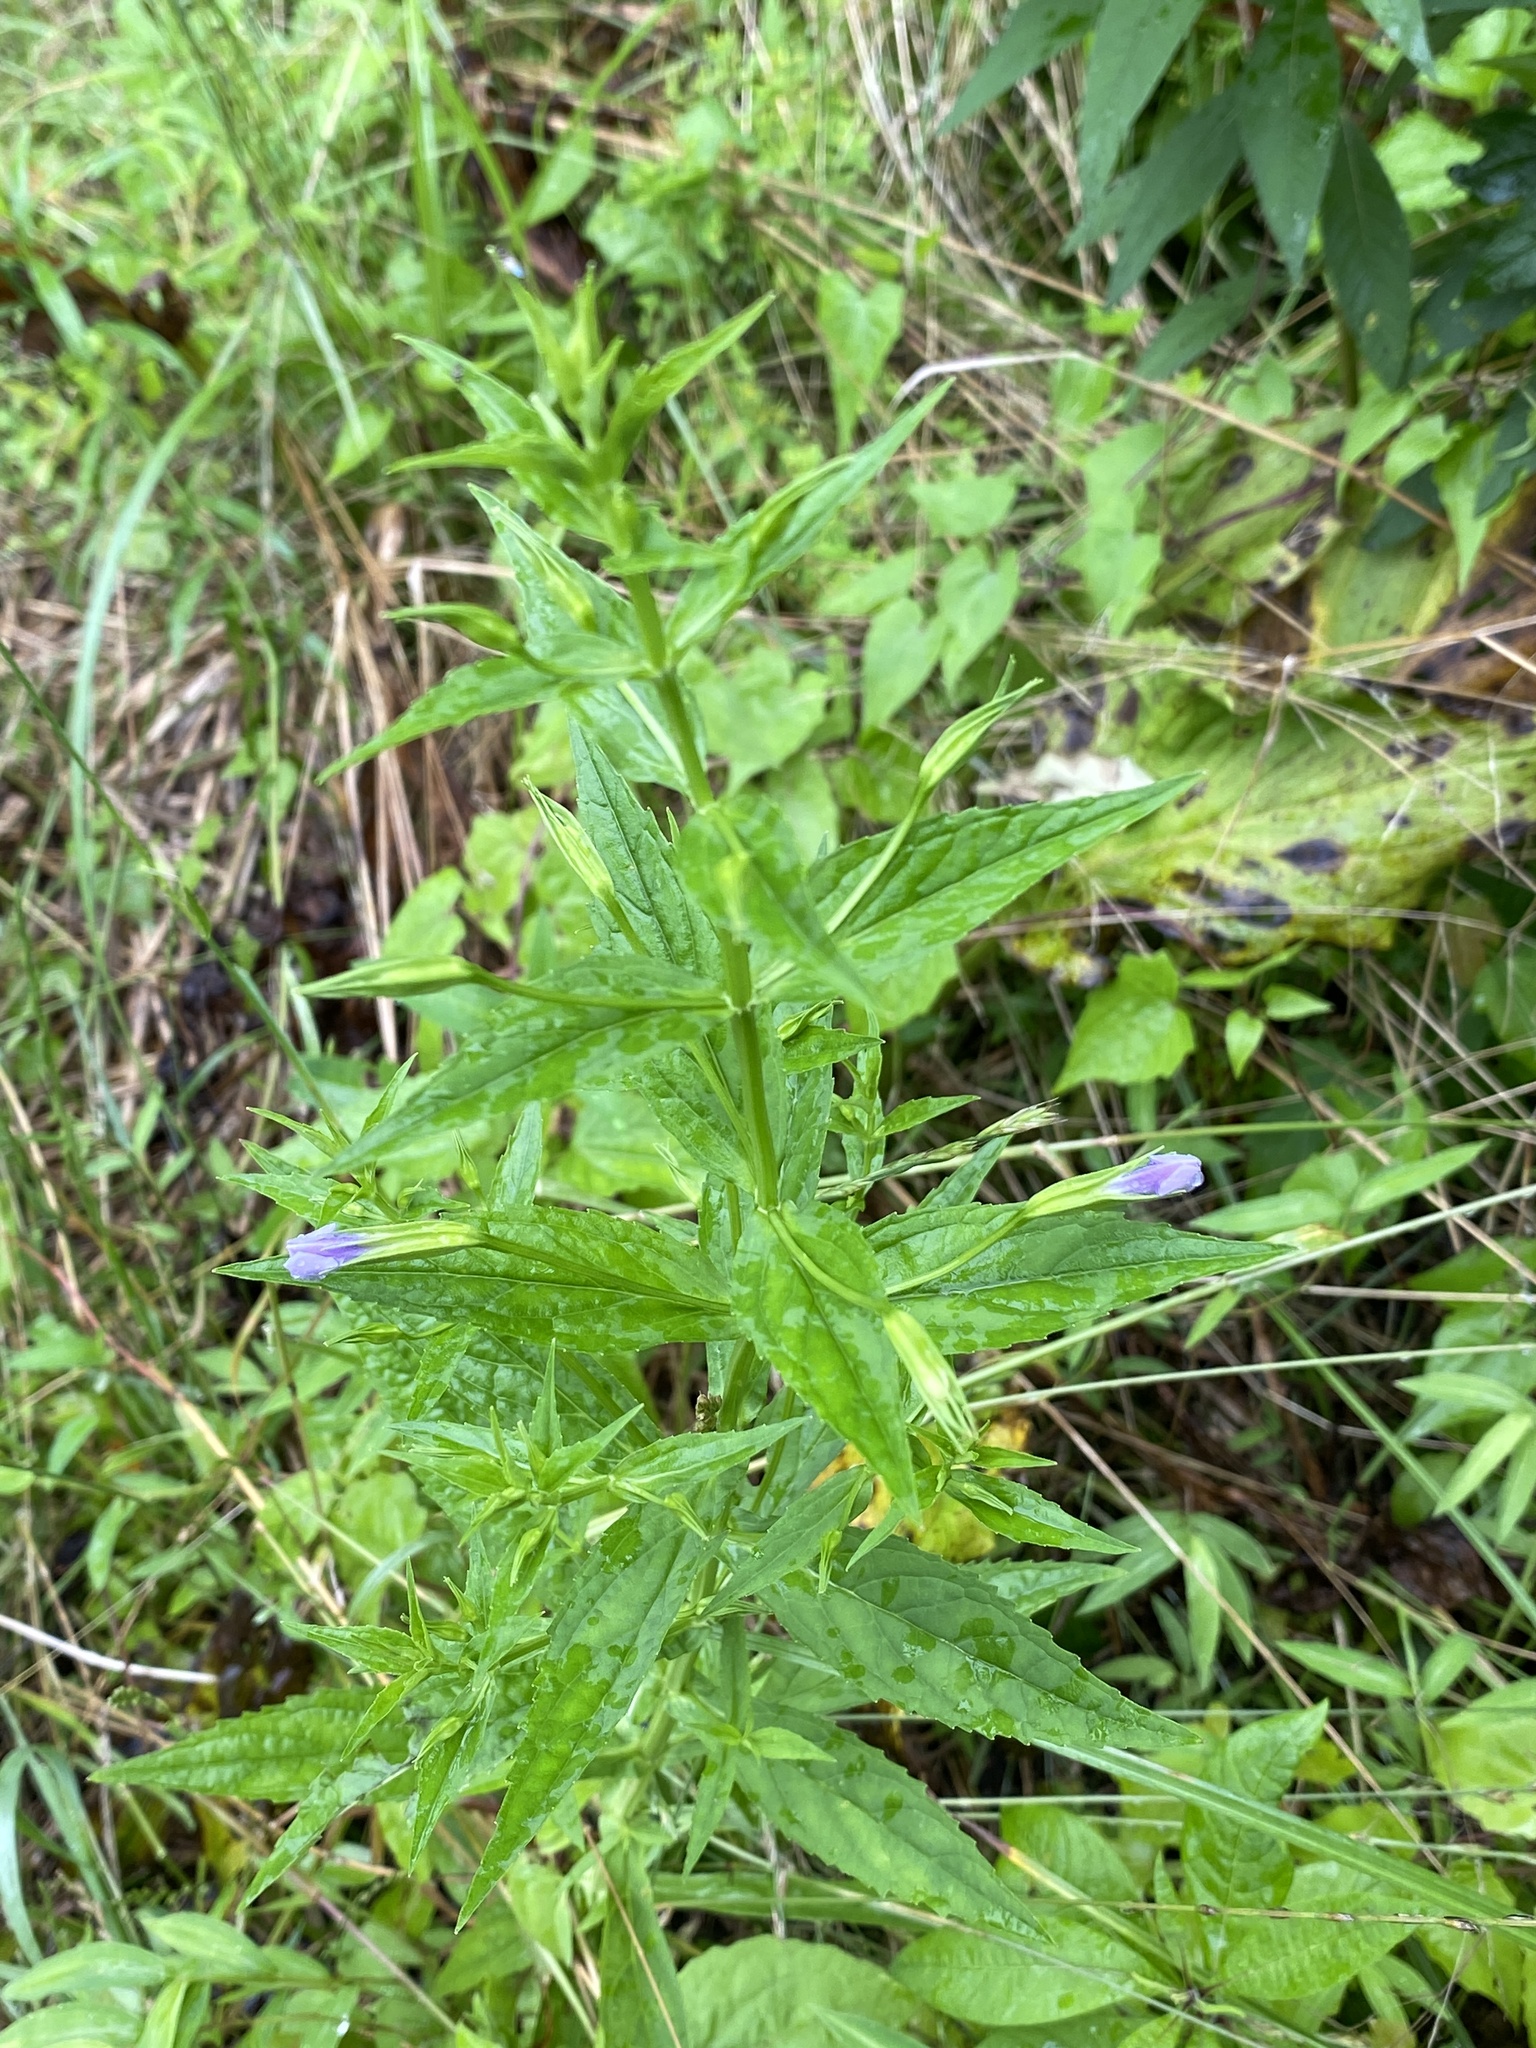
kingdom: Plantae
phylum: Tracheophyta
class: Magnoliopsida
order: Lamiales
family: Phrymaceae
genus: Mimulus
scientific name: Mimulus ringens
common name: Allegheny monkeyflower
